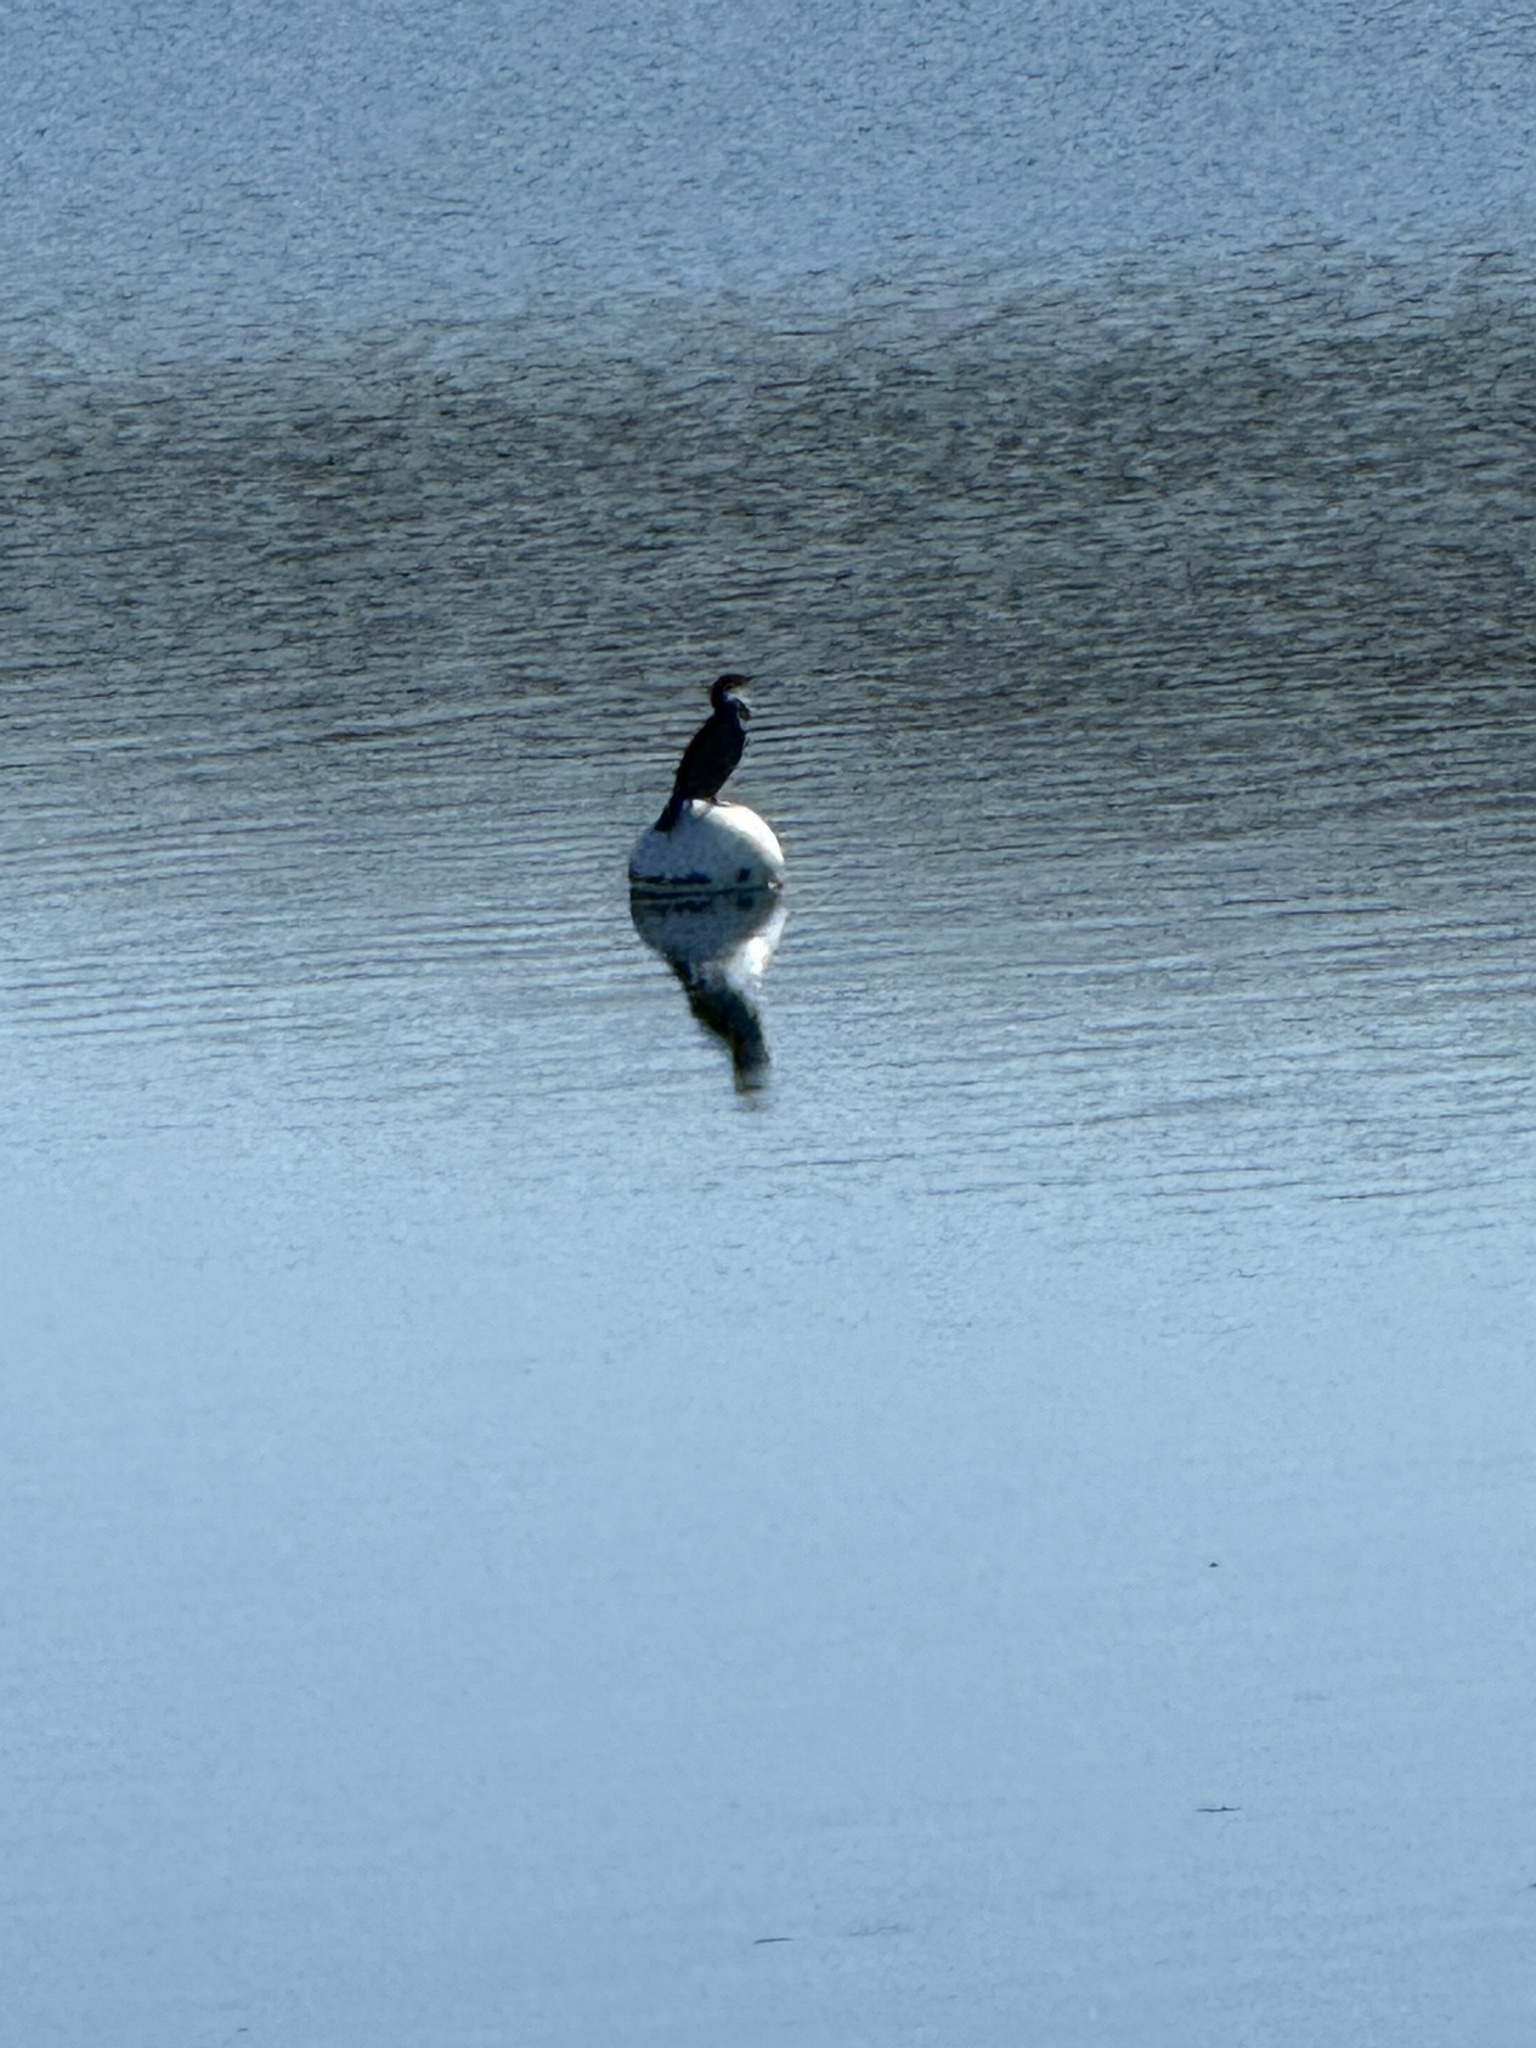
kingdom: Animalia
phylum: Chordata
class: Aves
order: Suliformes
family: Phalacrocoracidae
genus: Phalacrocorax
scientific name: Phalacrocorax auritus
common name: Double-crested cormorant
